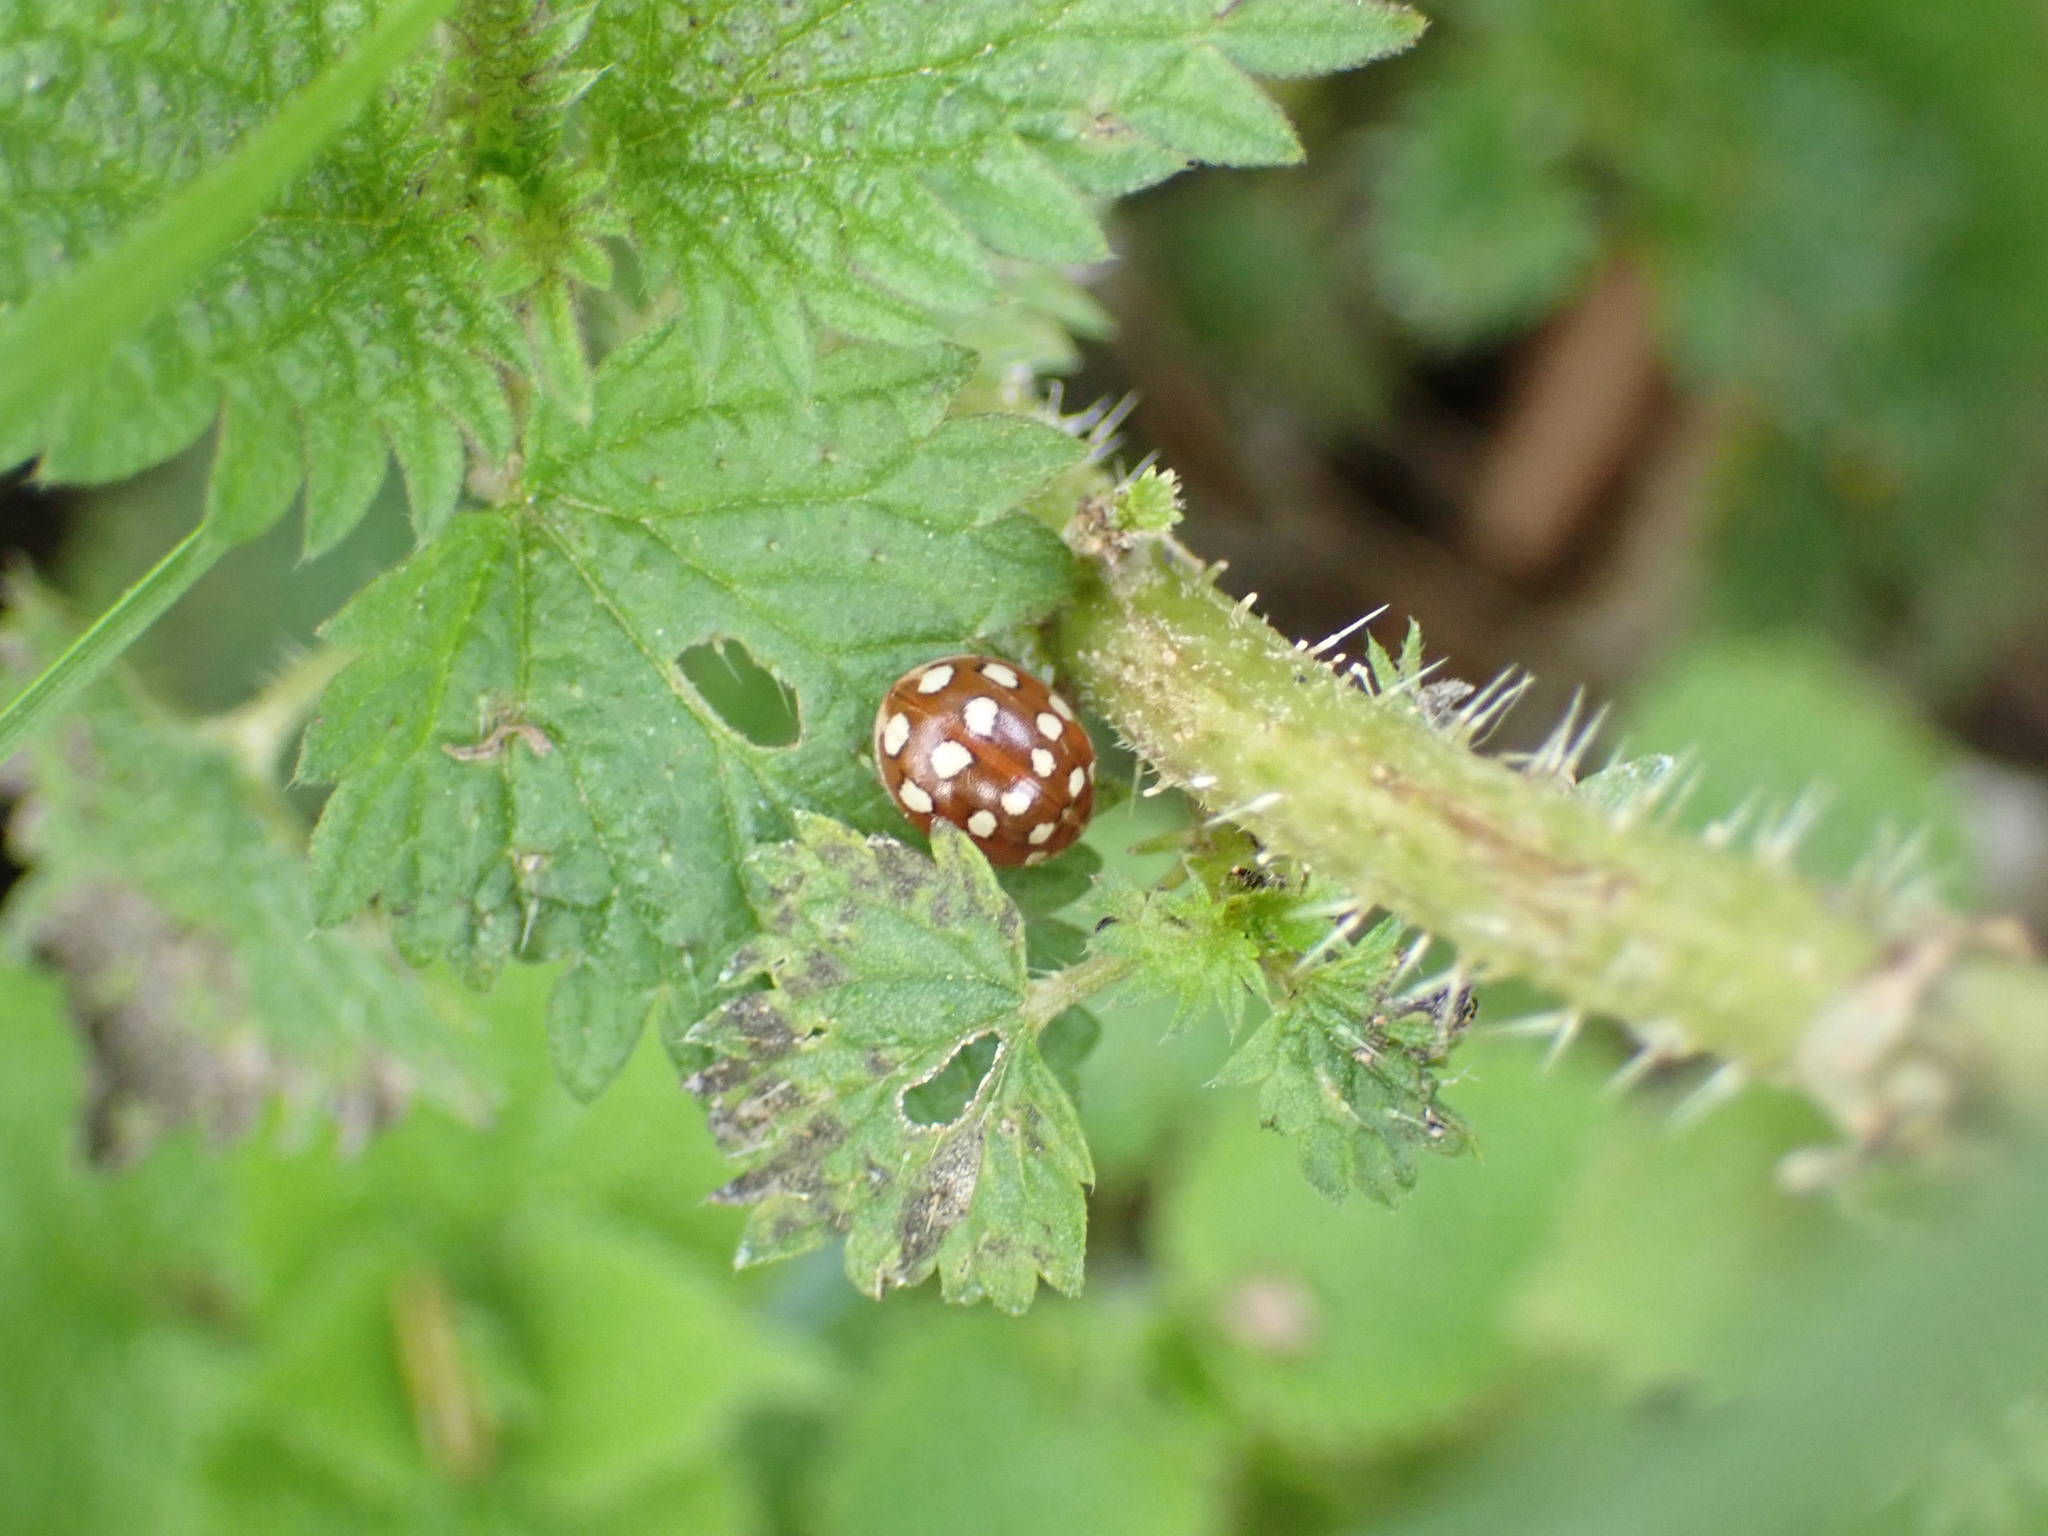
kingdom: Animalia
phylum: Arthropoda
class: Insecta
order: Coleoptera
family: Coccinellidae
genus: Calvia
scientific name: Calvia quatuordecimguttata
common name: Cream-spot ladybird
